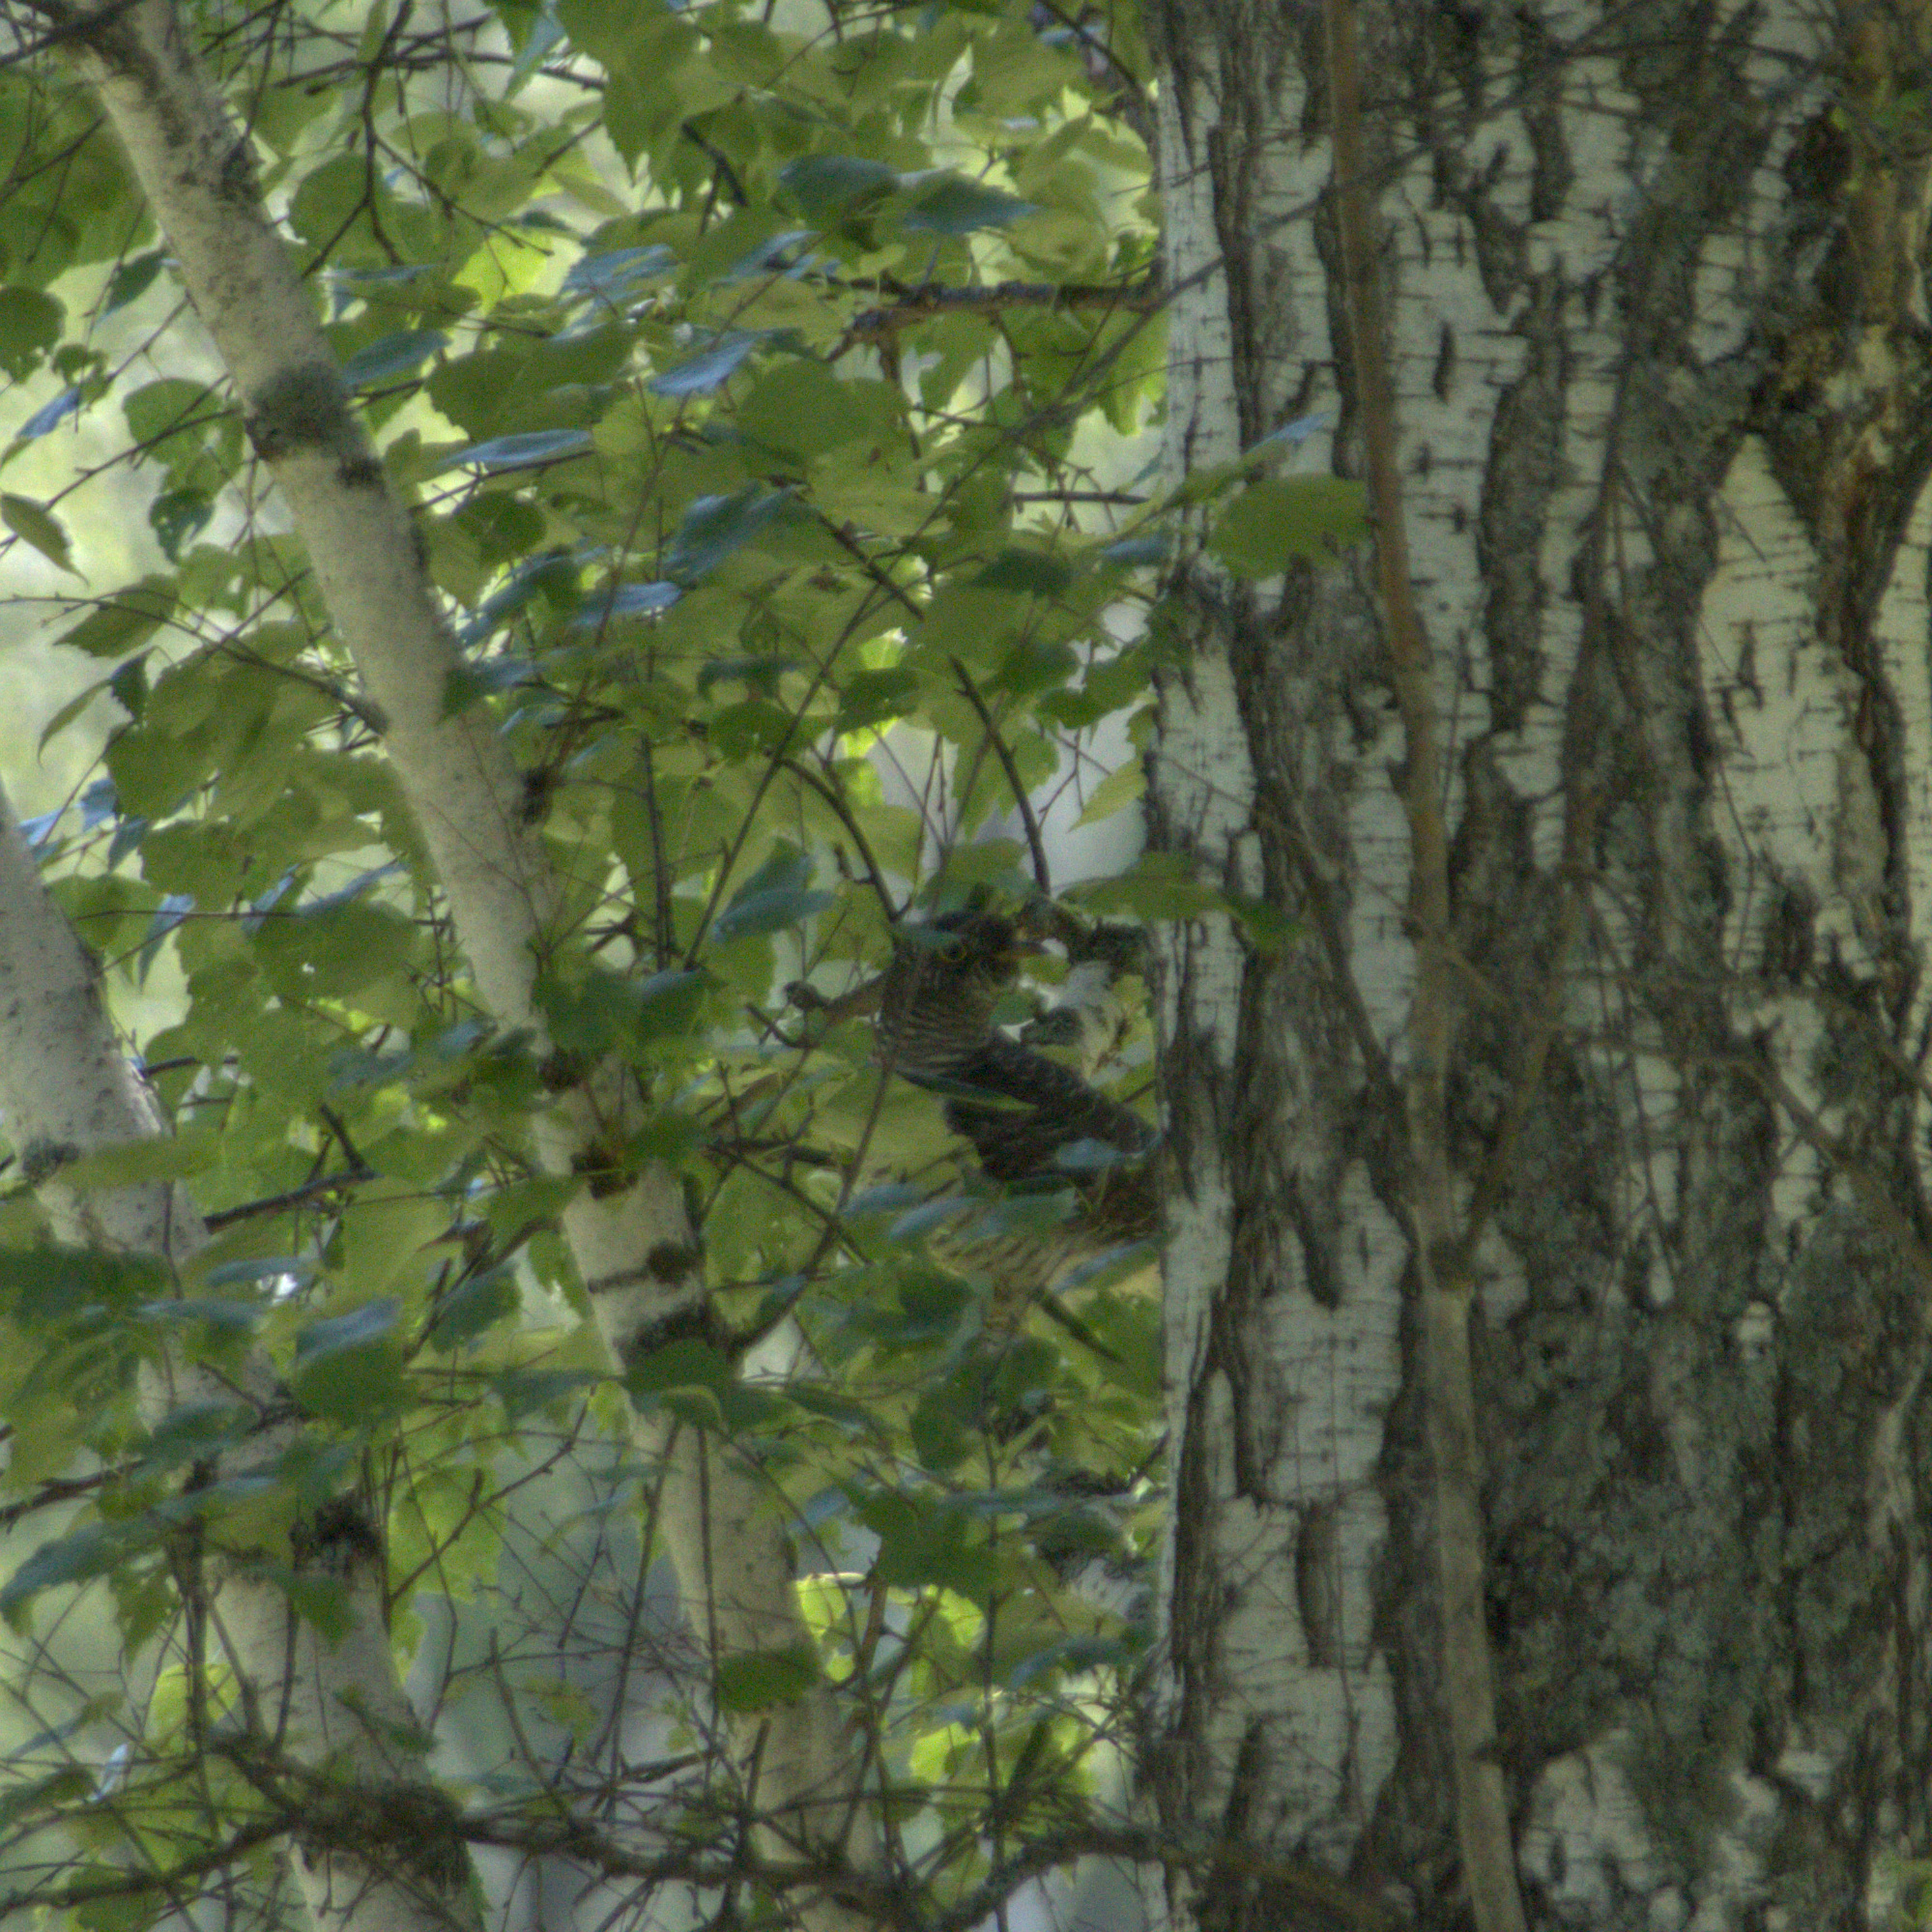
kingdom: Animalia
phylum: Chordata
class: Aves
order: Cuculiformes
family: Cuculidae
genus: Cuculus
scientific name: Cuculus canorus
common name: Common cuckoo
